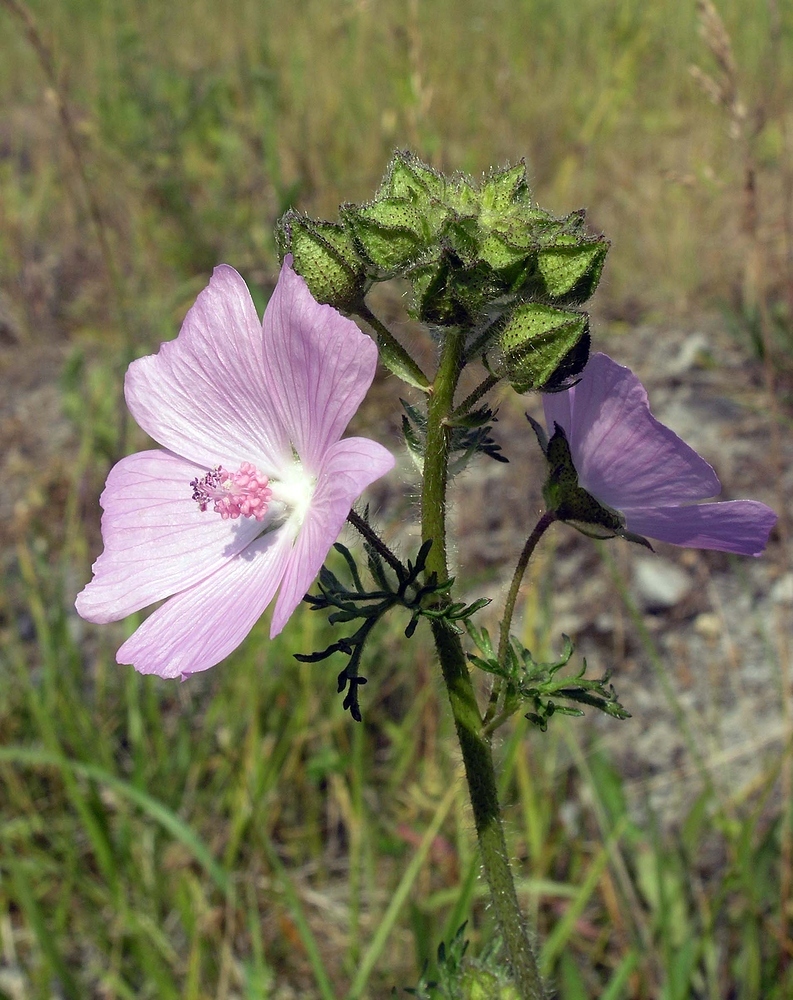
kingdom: Plantae
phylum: Tracheophyta
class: Magnoliopsida
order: Malvales
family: Malvaceae
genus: Malva
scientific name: Malva moschata
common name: Musk mallow
